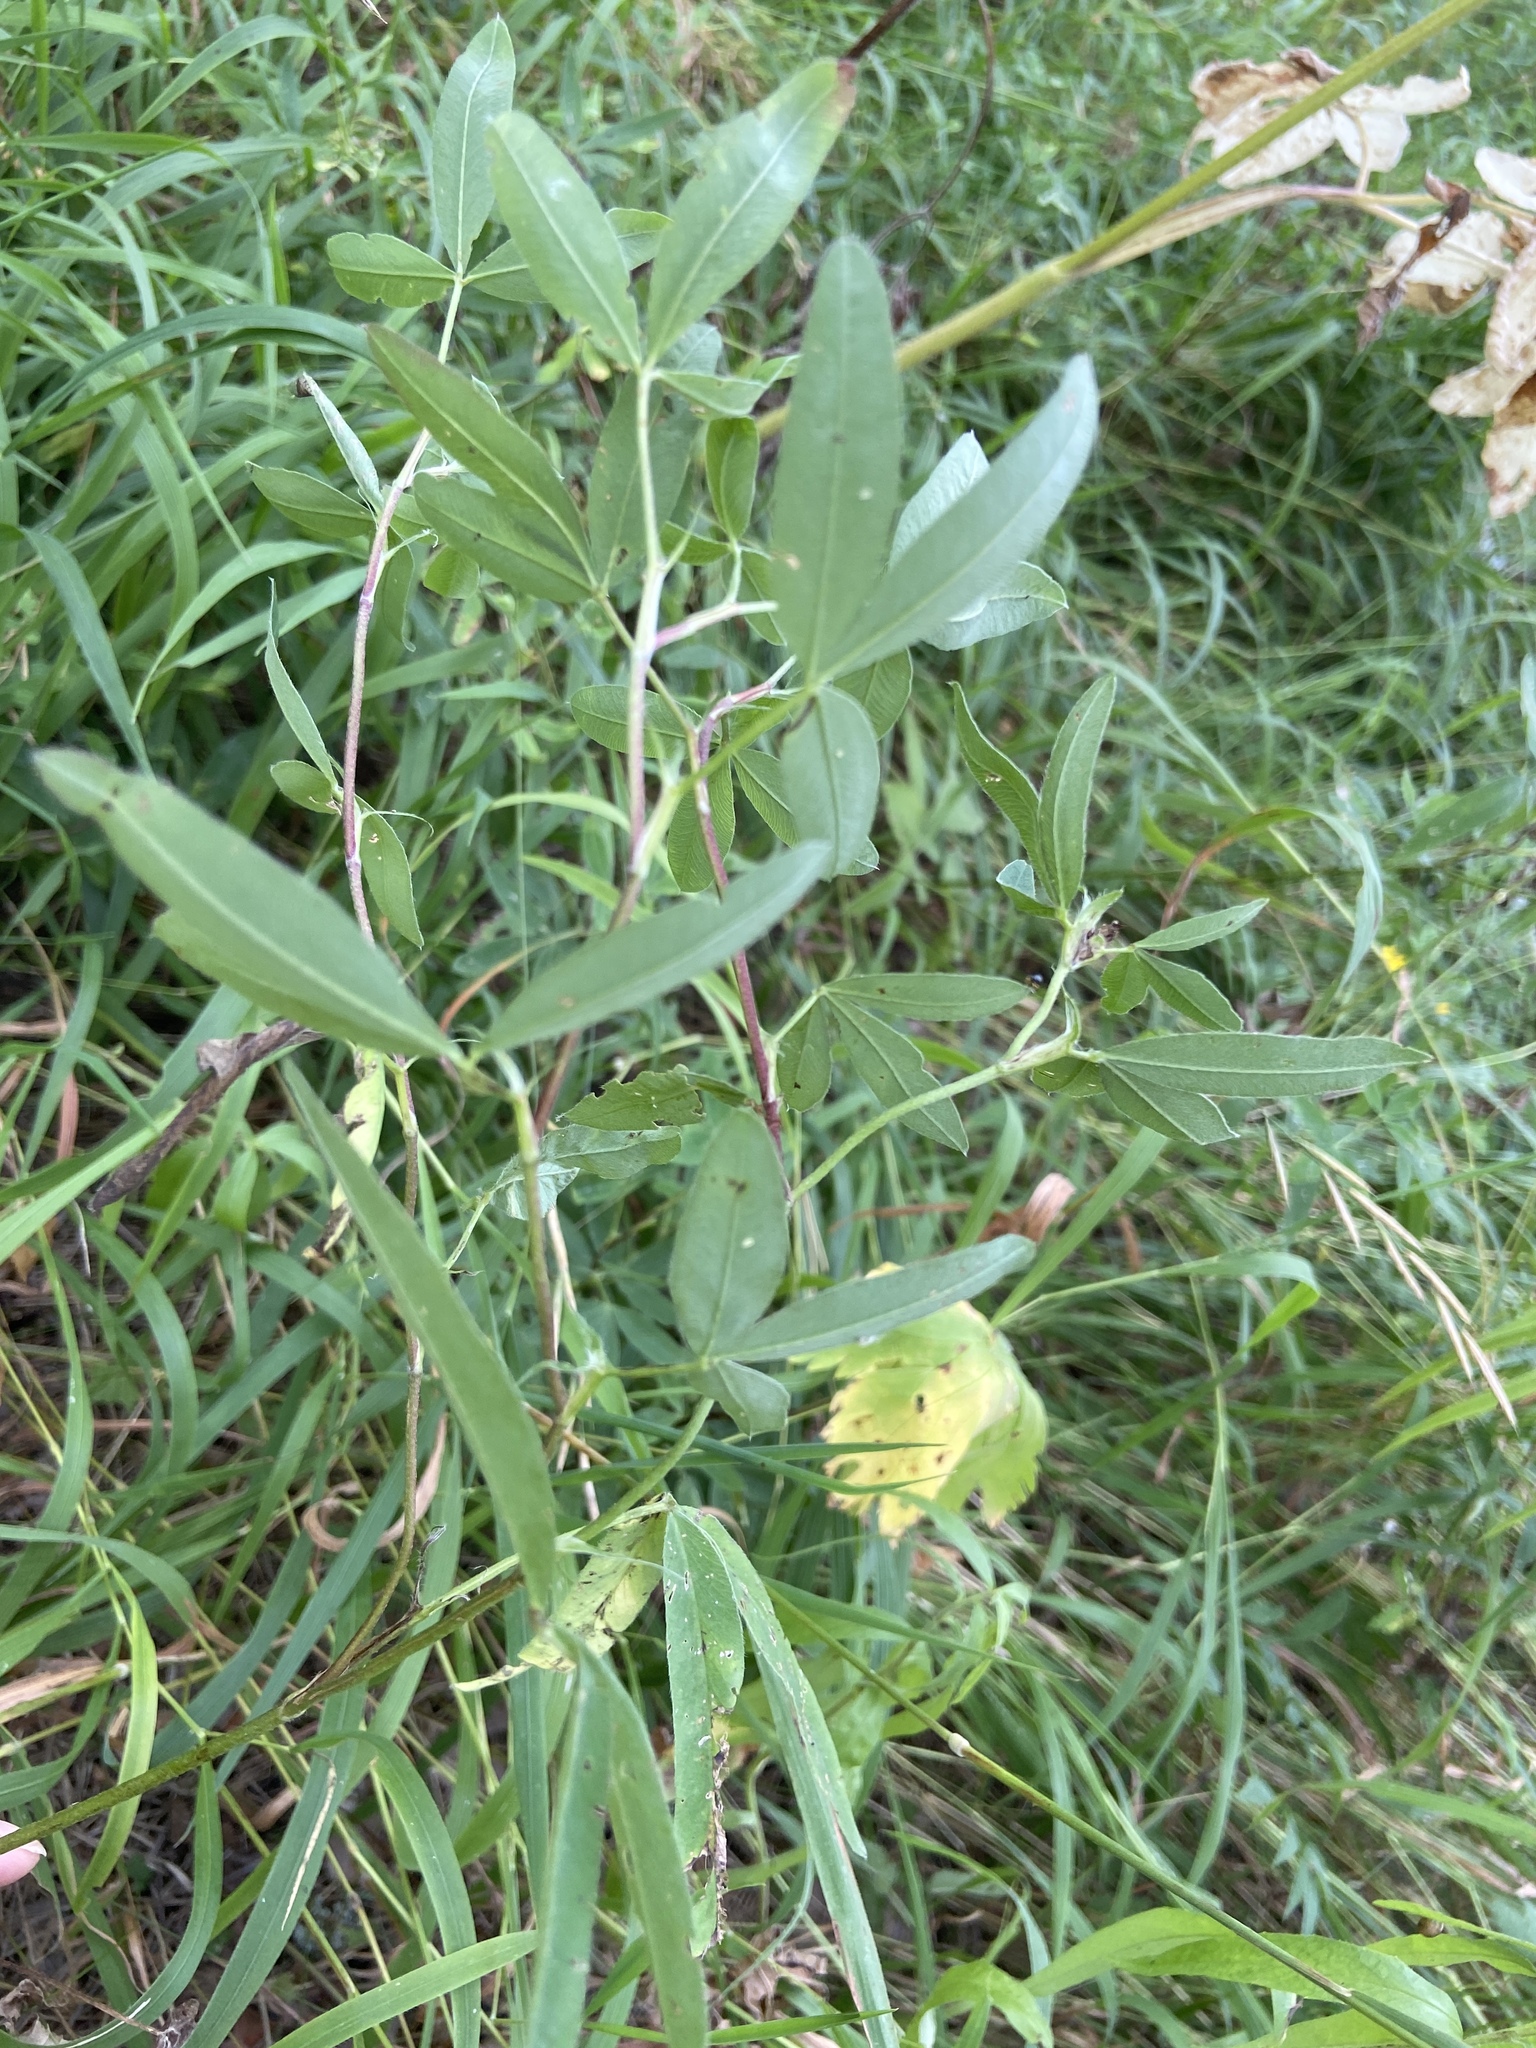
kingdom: Plantae
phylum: Tracheophyta
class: Magnoliopsida
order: Fabales
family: Fabaceae
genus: Trifolium
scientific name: Trifolium medium
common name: Zigzag clover
